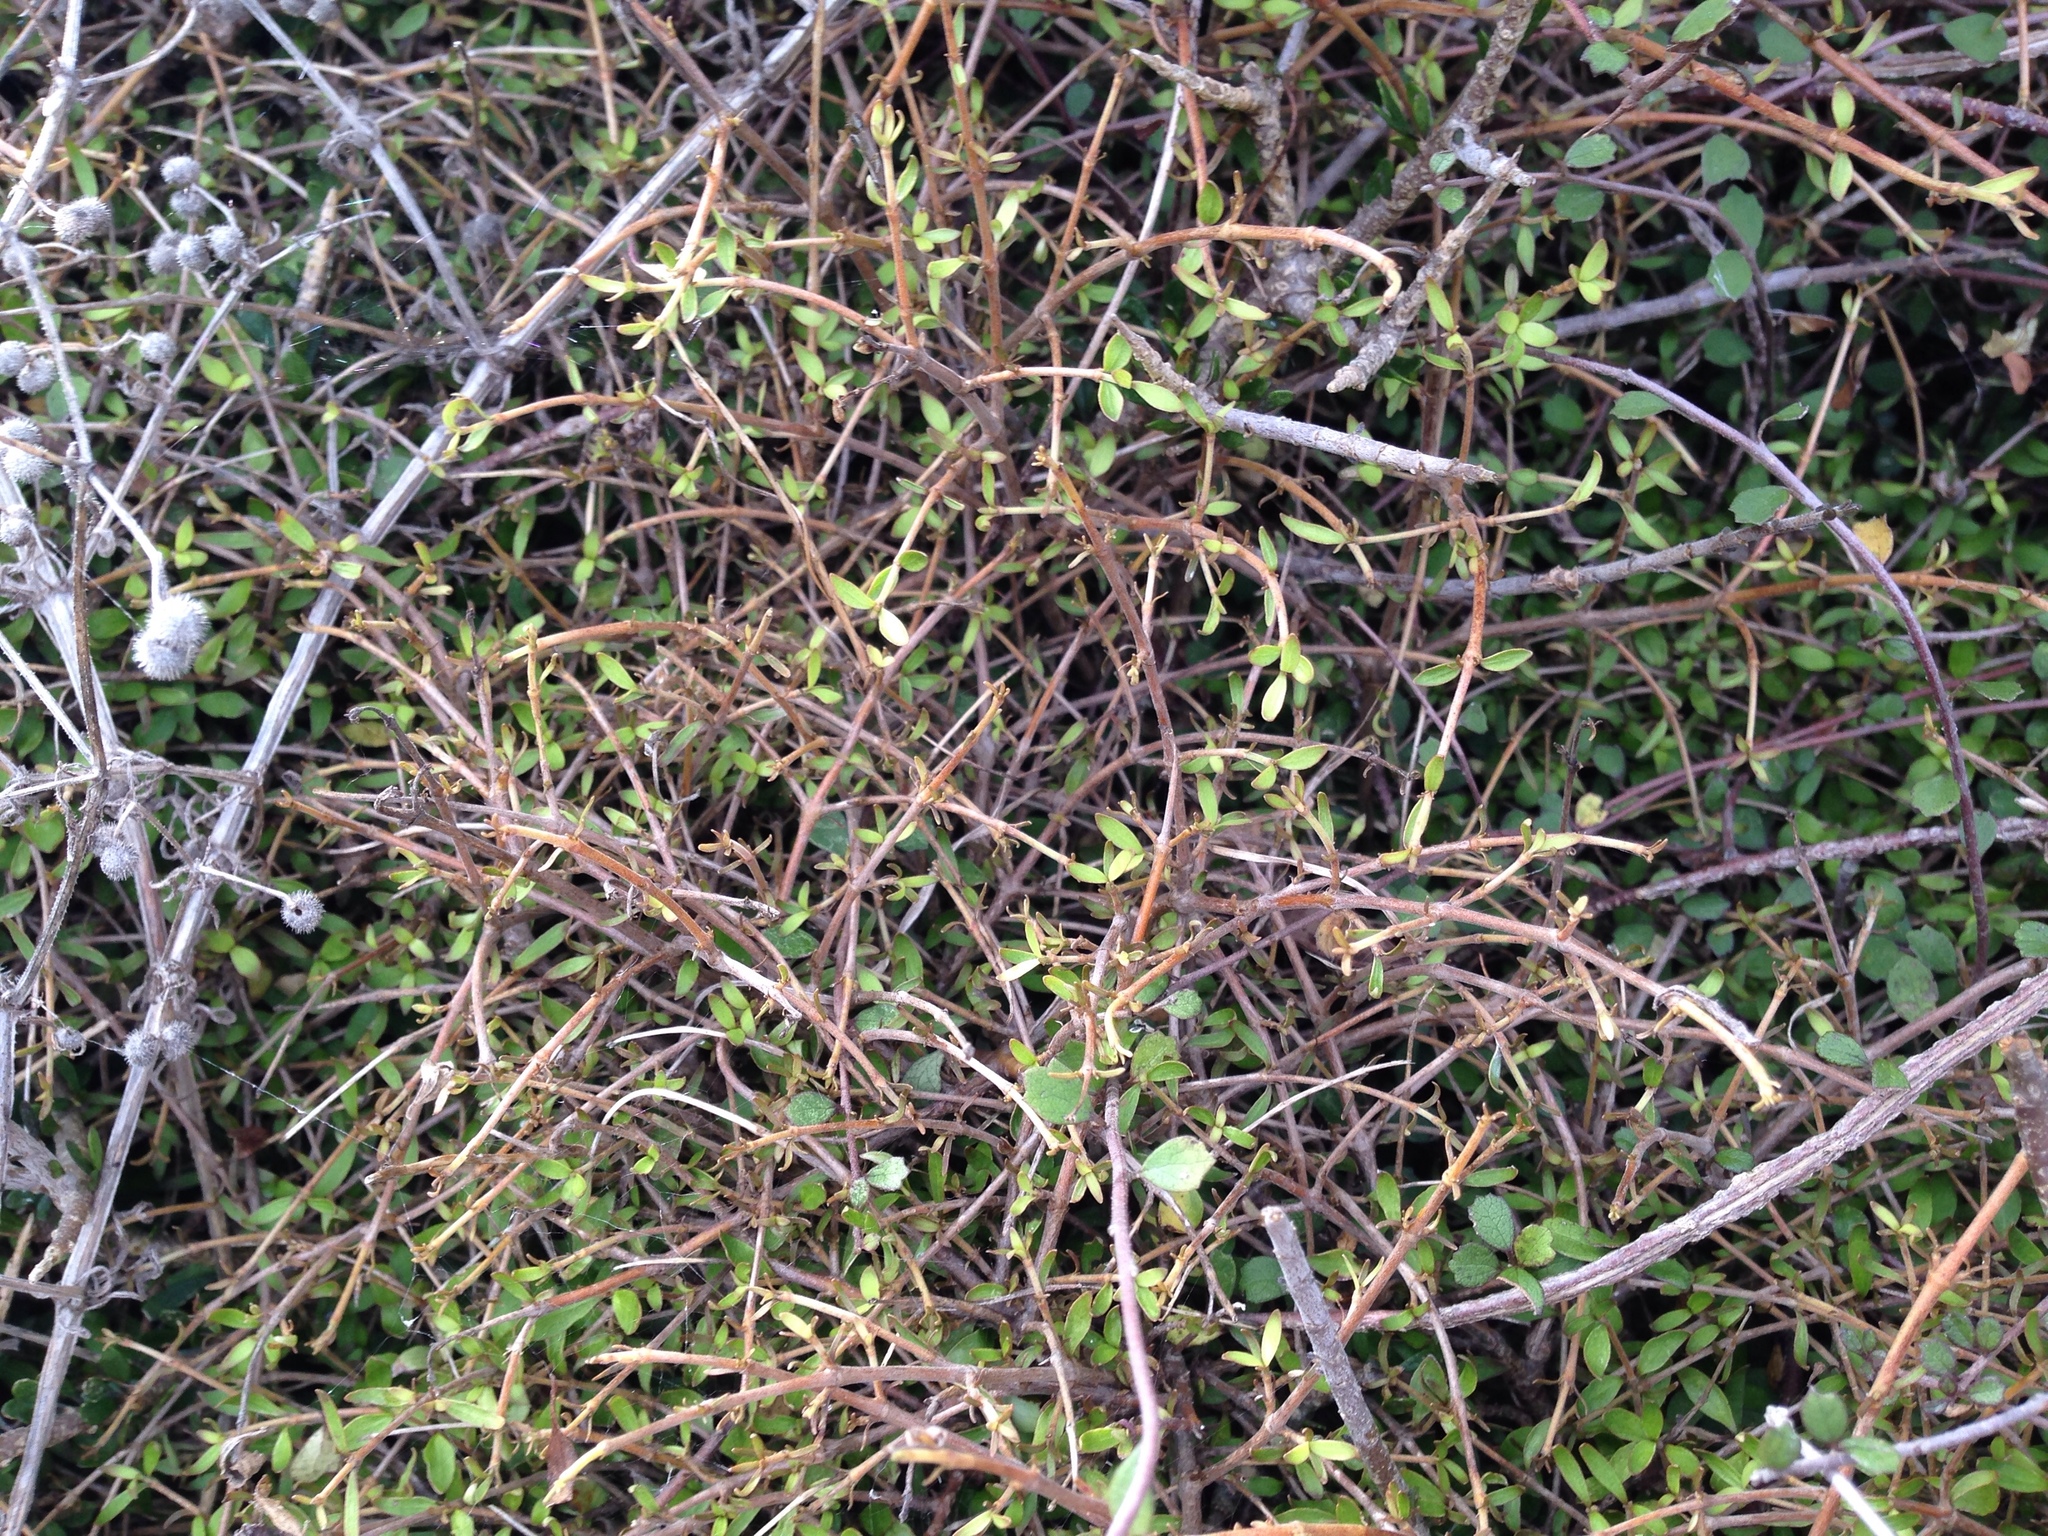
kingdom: Plantae
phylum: Tracheophyta
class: Magnoliopsida
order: Gentianales
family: Rubiaceae
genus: Coprosma
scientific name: Coprosma rhamnoides
